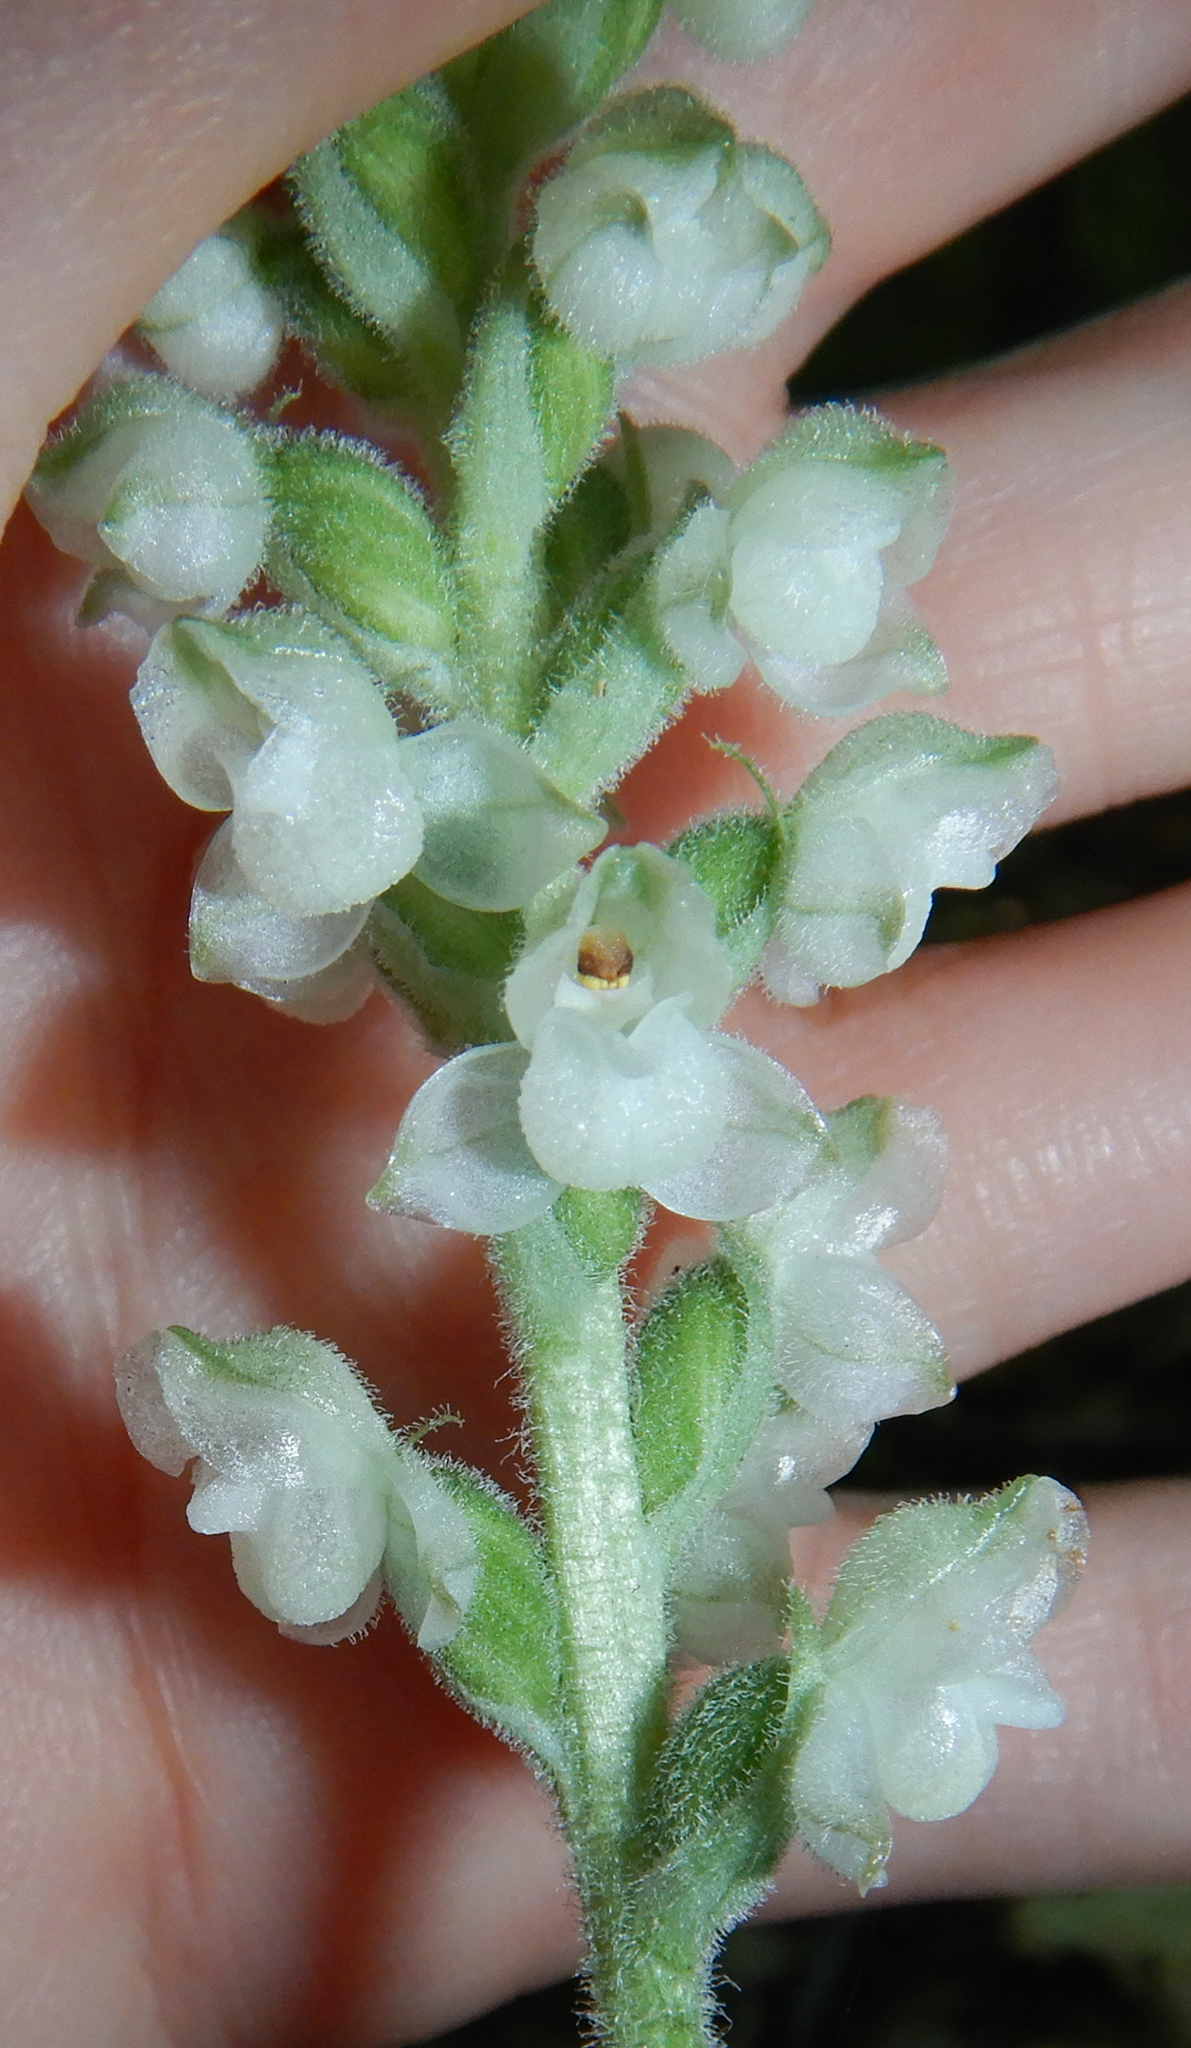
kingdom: Plantae
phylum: Tracheophyta
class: Liliopsida
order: Asparagales
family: Orchidaceae
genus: Goodyera
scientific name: Goodyera pubescens
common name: Downy rattlesnake-plantain
